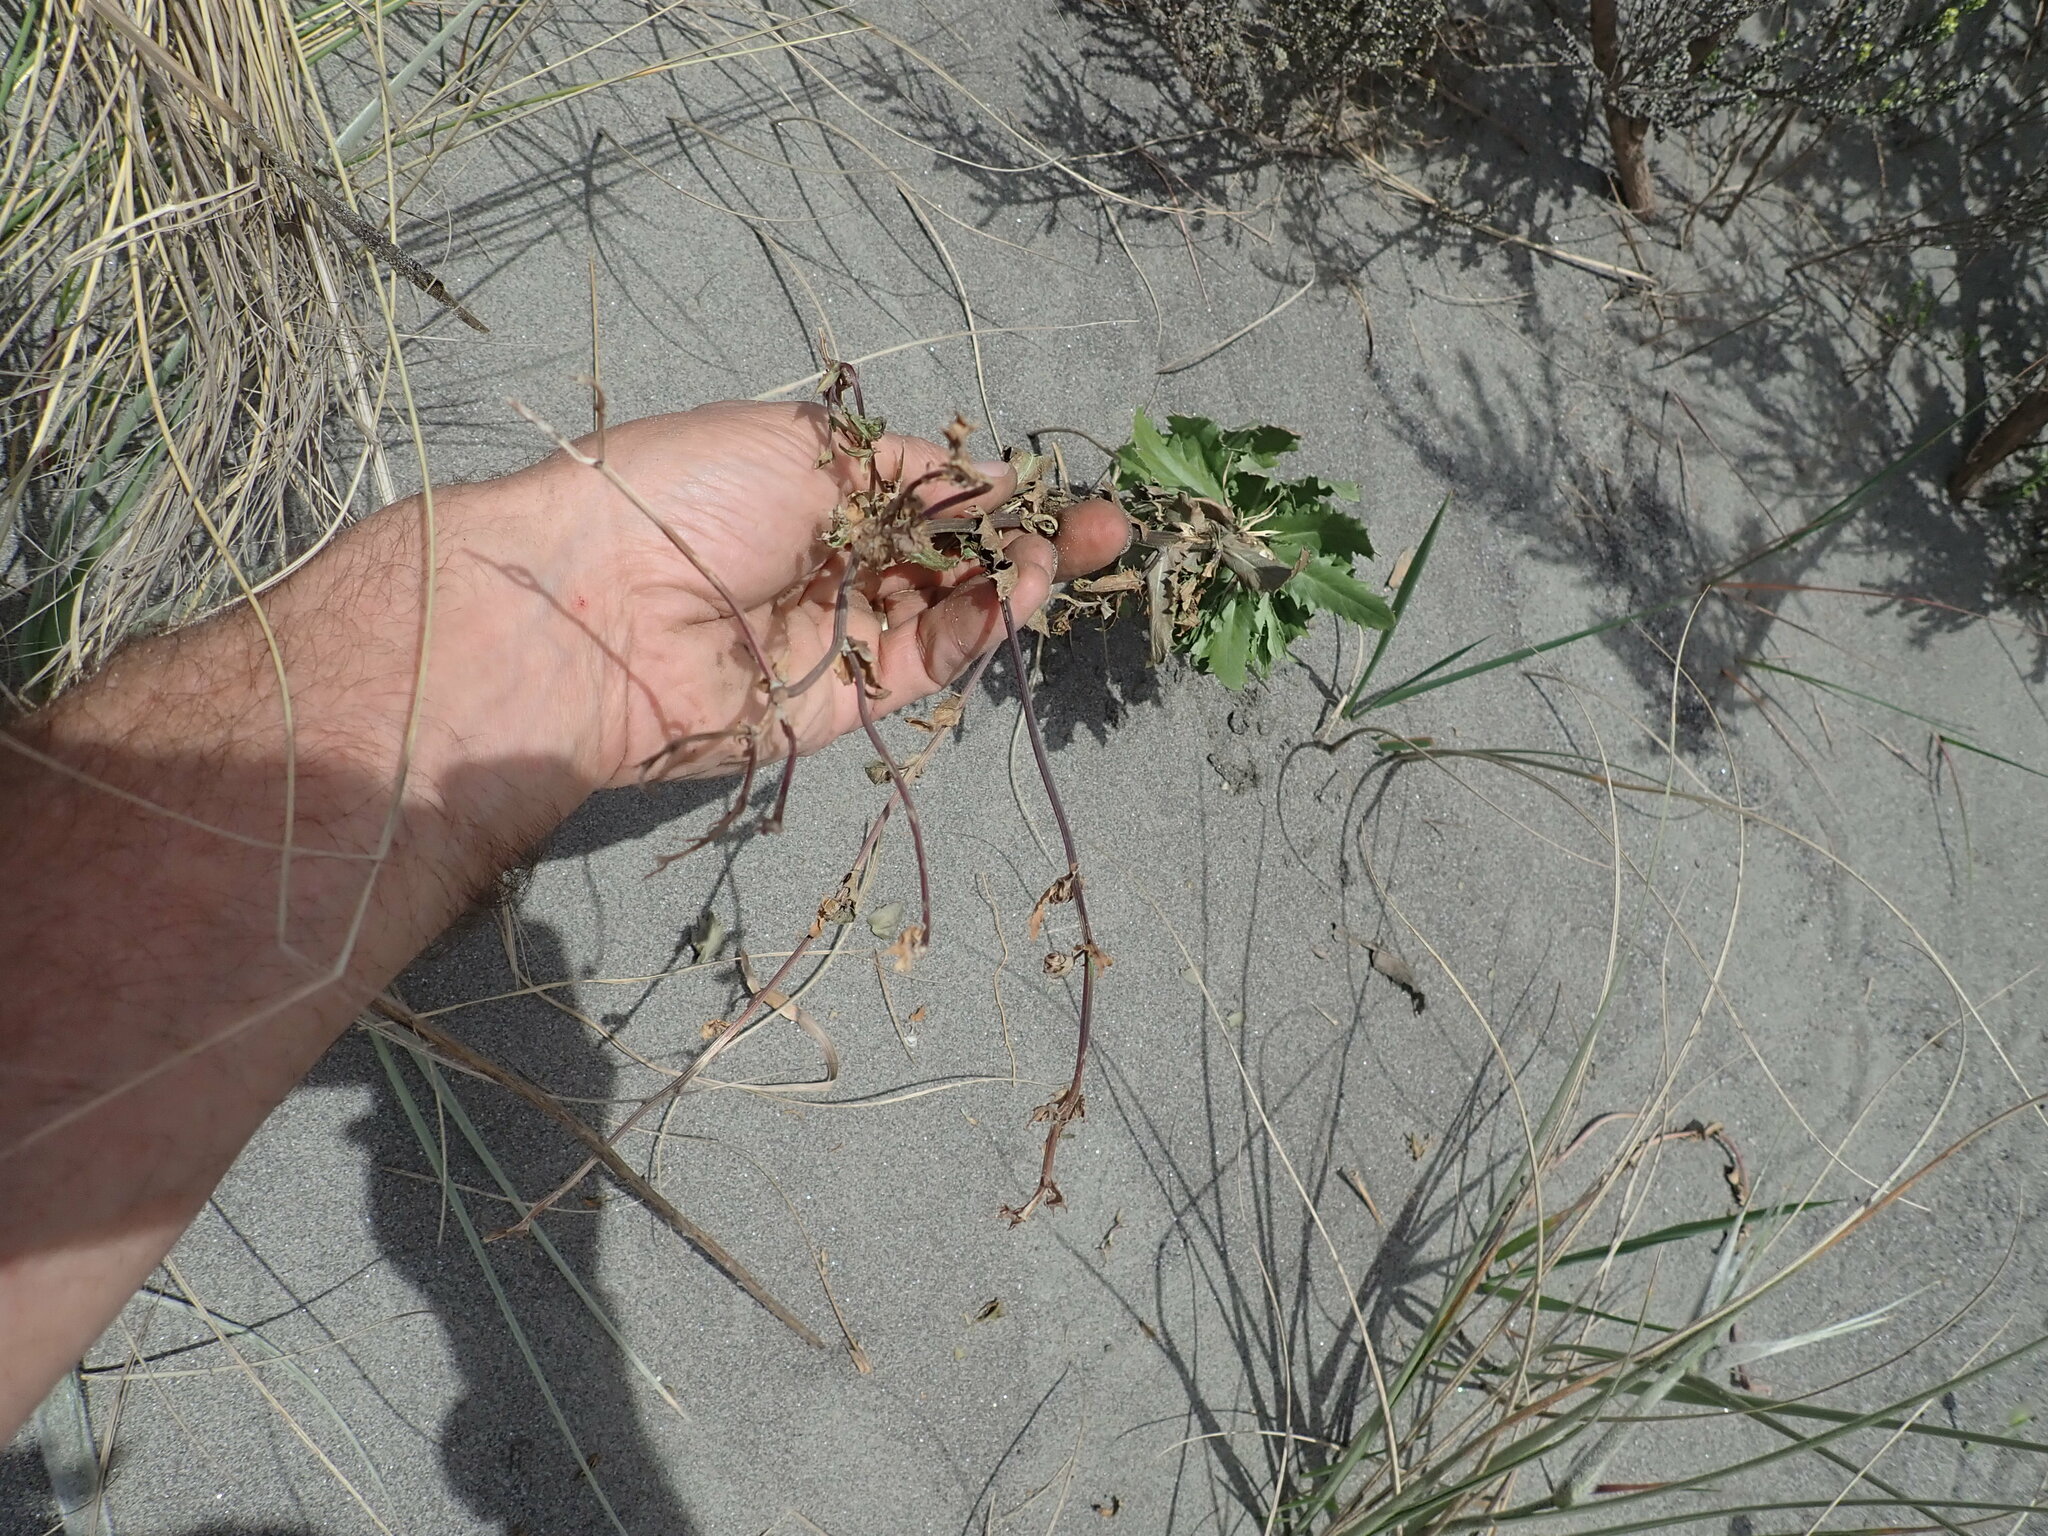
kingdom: Plantae
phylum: Tracheophyta
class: Magnoliopsida
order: Asterales
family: Asteraceae
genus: Senecio
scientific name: Senecio glastifolius
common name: Woad-leaved ragwort
